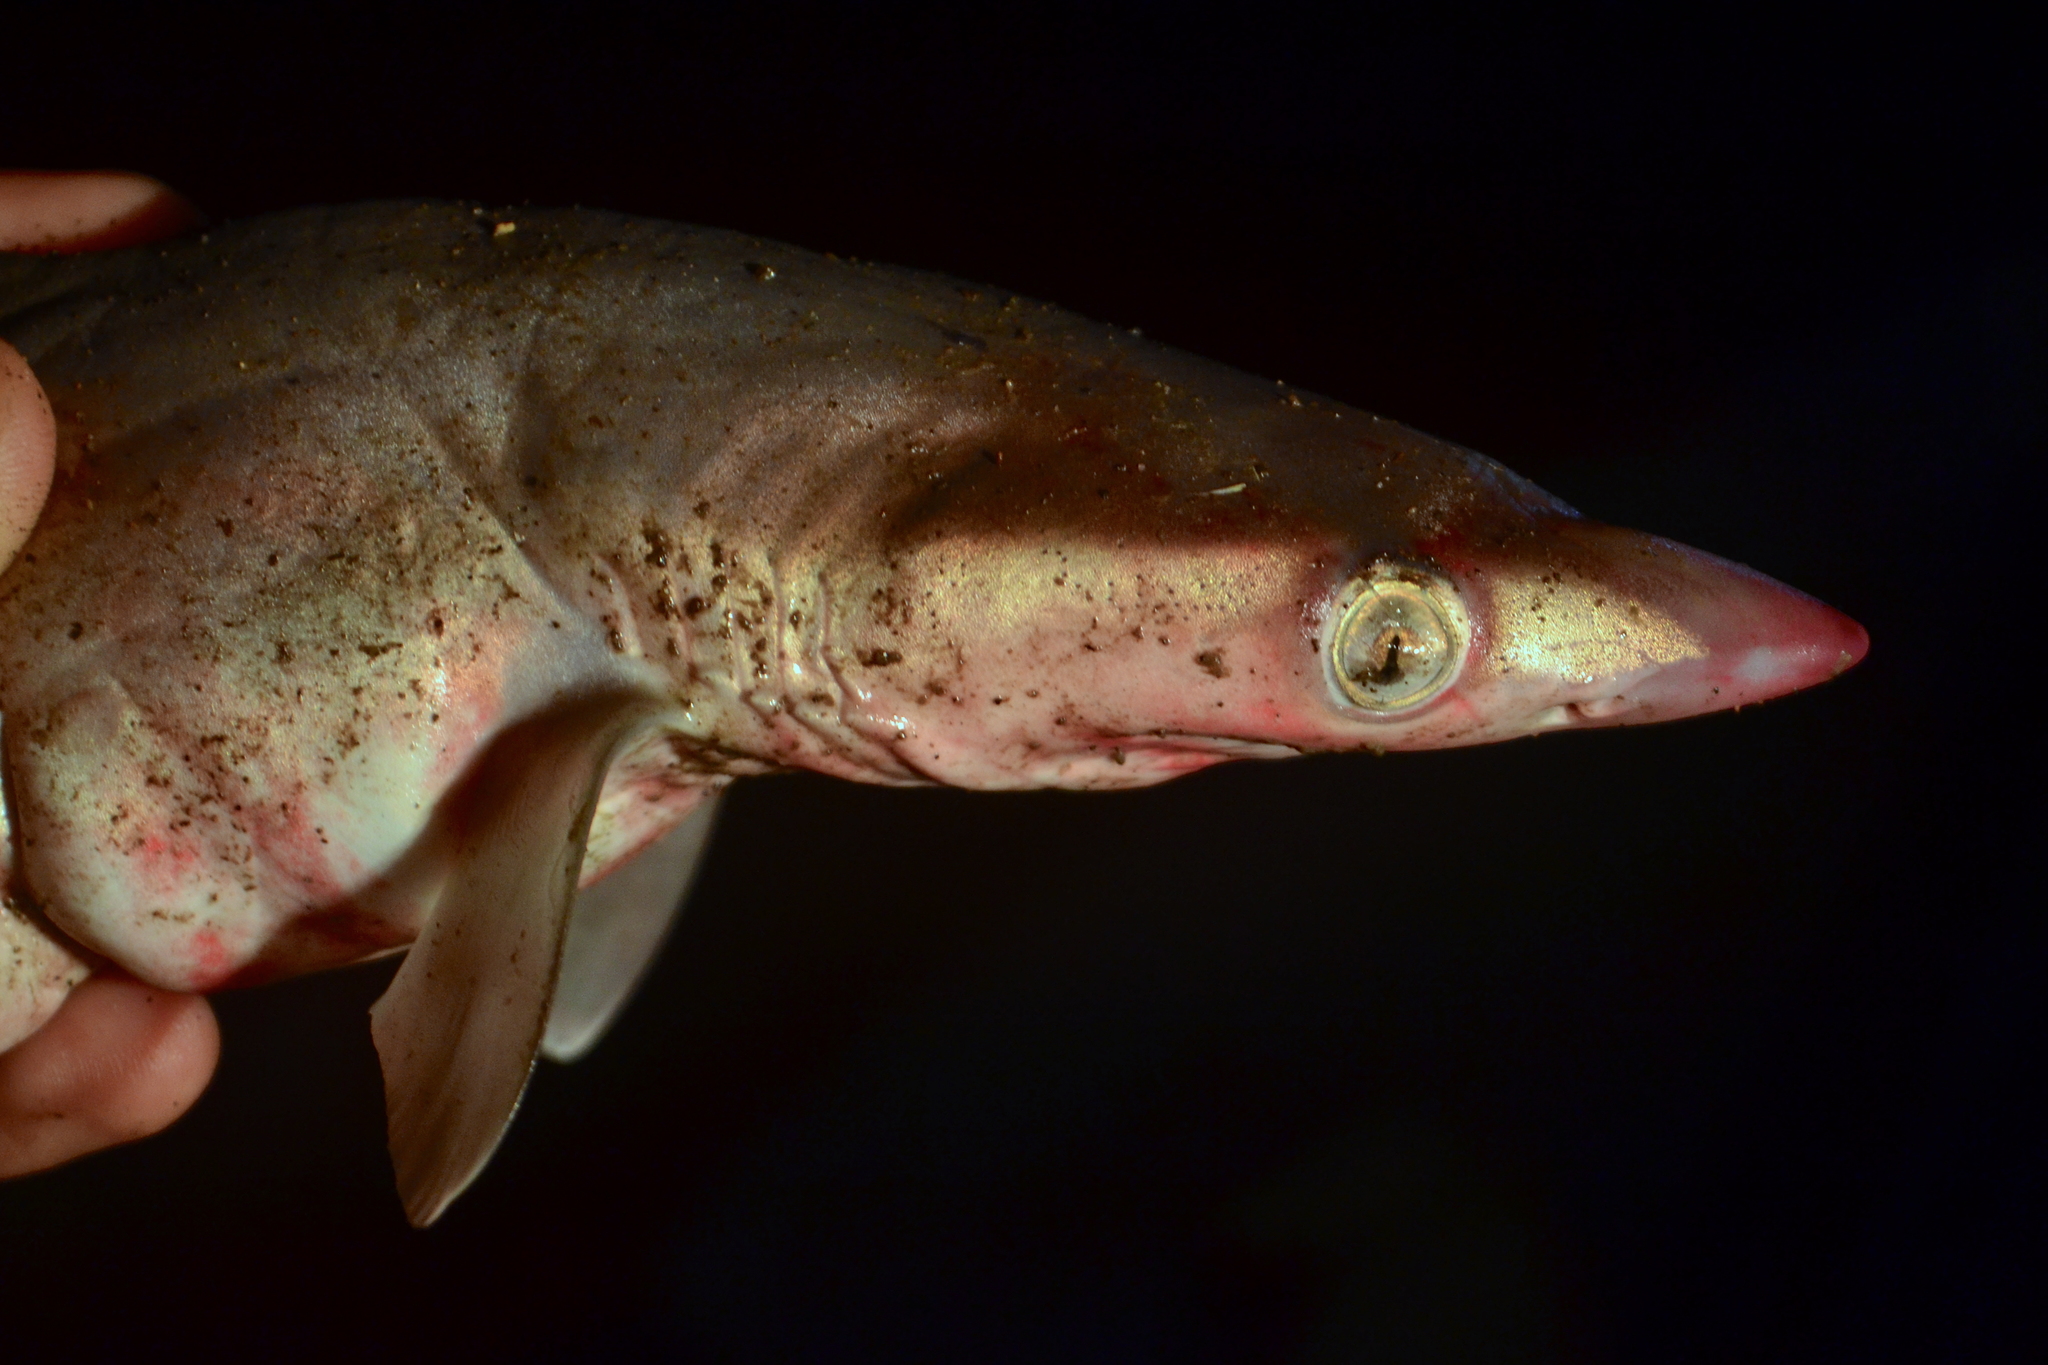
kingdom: Animalia
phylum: Chordata
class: Elasmobranchii
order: Carcharhiniformes
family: Carcharhinidae
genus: Rhizoprionodon
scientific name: Rhizoprionodon longurio
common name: Pacific sharpnose shark
